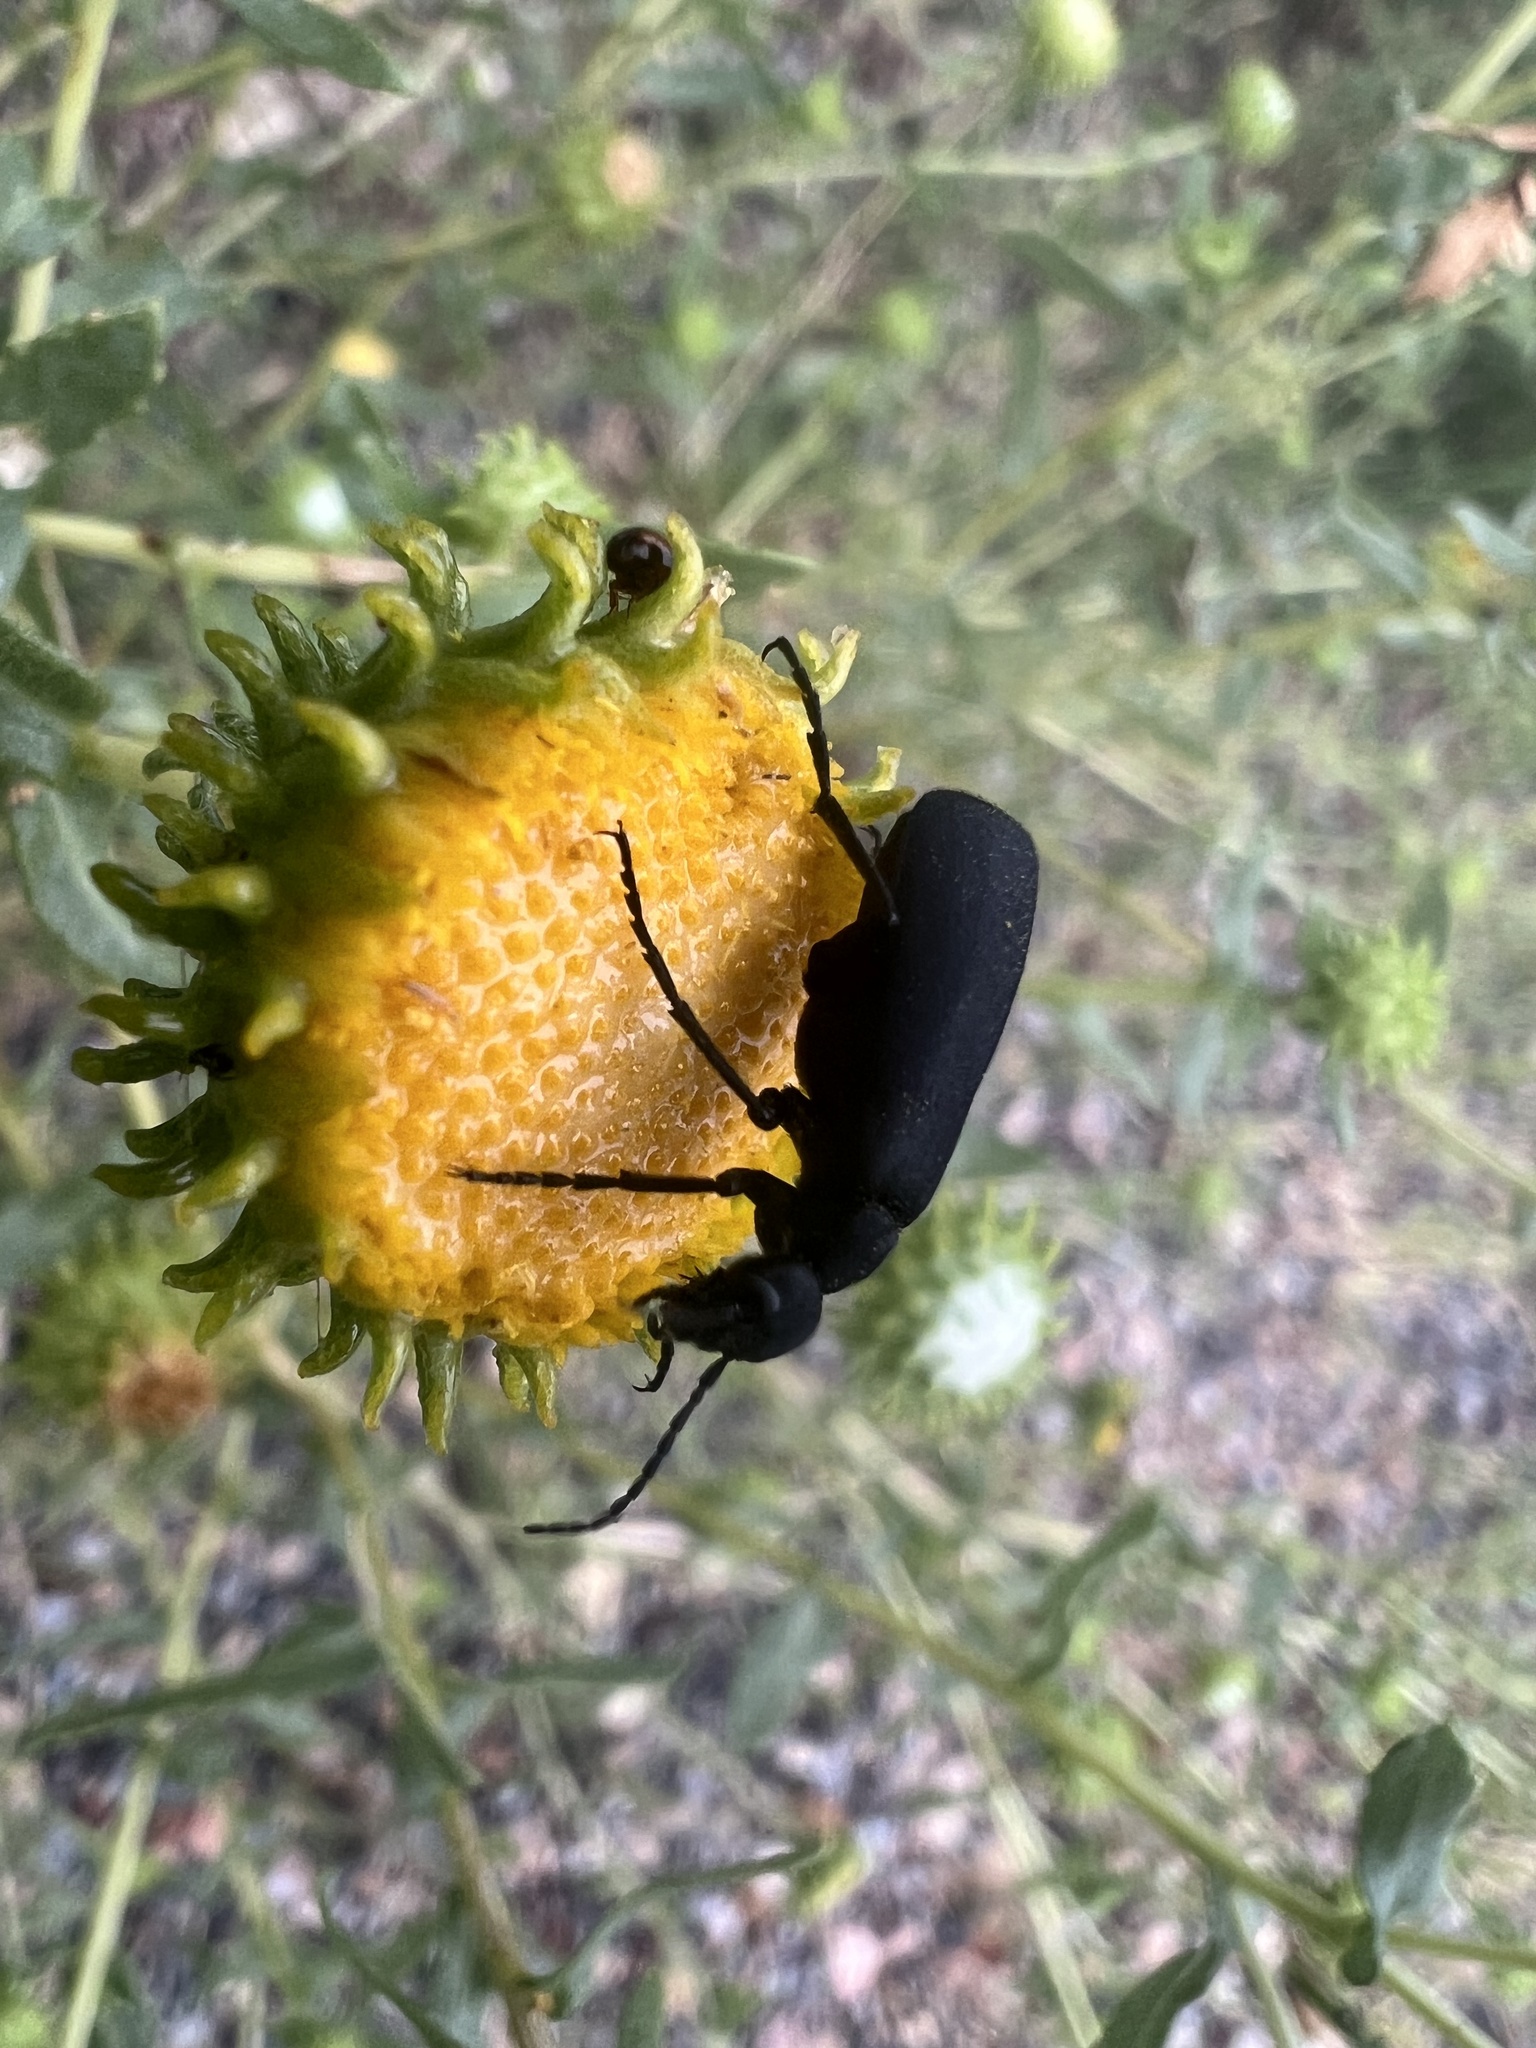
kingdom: Plantae
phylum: Tracheophyta
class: Magnoliopsida
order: Asterales
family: Asteraceae
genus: Grindelia
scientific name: Grindelia nuda
